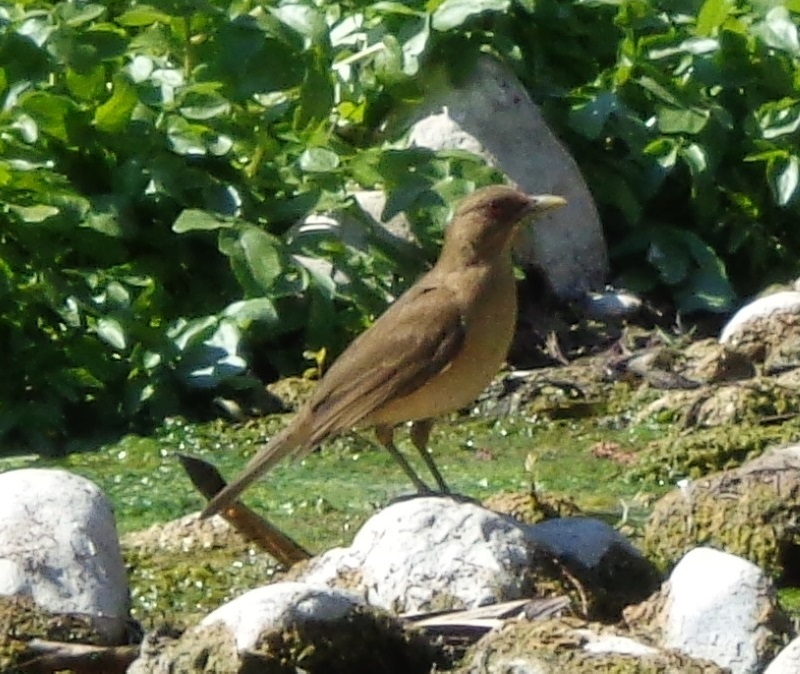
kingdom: Animalia
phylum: Chordata
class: Aves
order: Passeriformes
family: Turdidae
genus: Turdus
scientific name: Turdus grayi
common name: Clay-colored thrush
